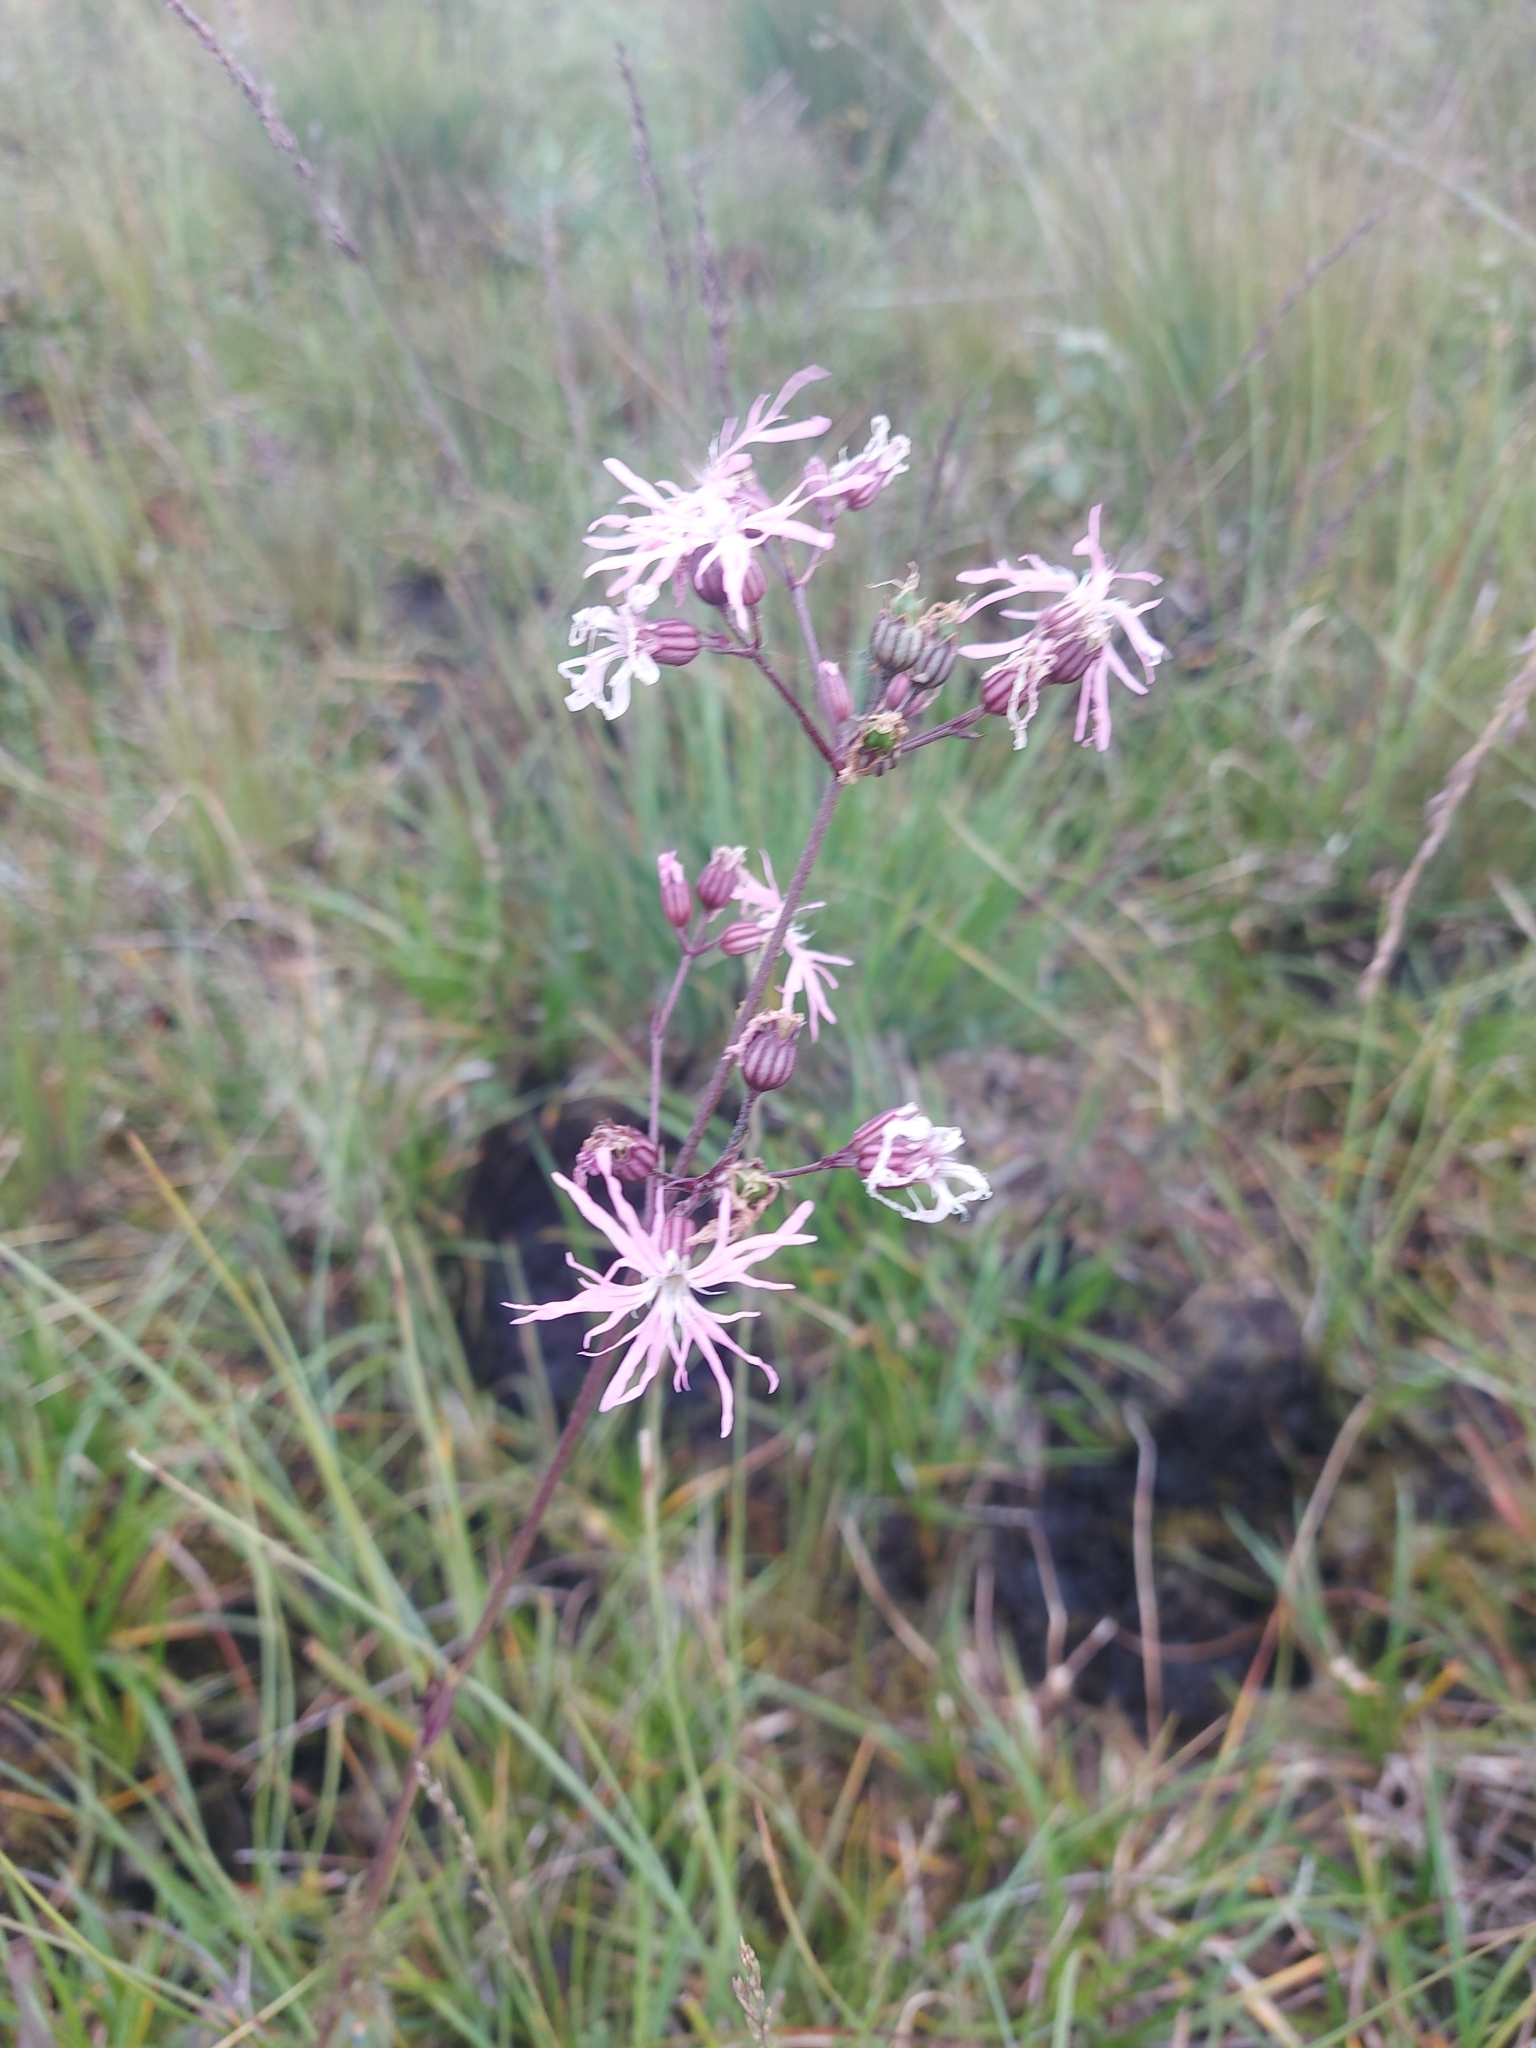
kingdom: Plantae
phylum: Tracheophyta
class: Magnoliopsida
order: Caryophyllales
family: Caryophyllaceae
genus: Silene
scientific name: Silene flos-cuculi
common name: Ragged-robin
